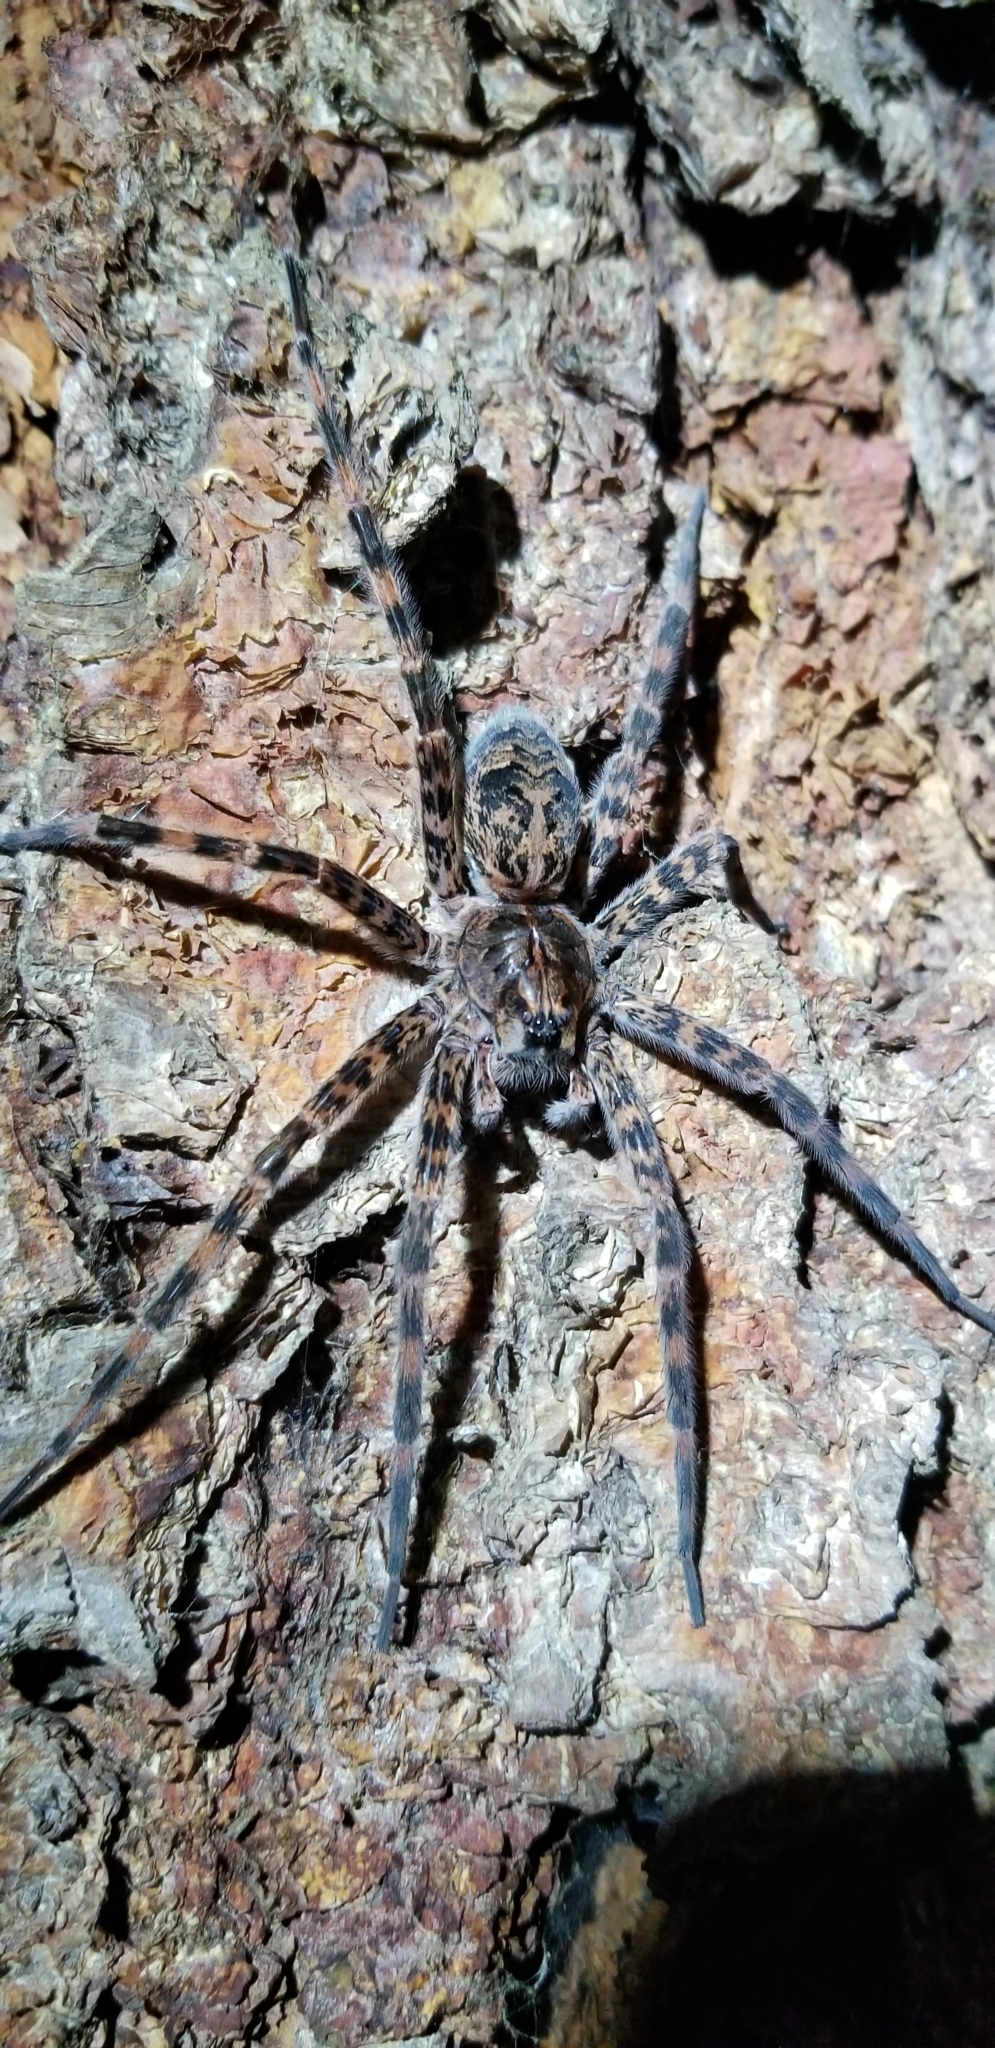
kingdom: Animalia
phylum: Arthropoda
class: Arachnida
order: Araneae
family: Pisauridae
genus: Dolomedes
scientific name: Dolomedes tenebrosus
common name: Dark fishing spider
